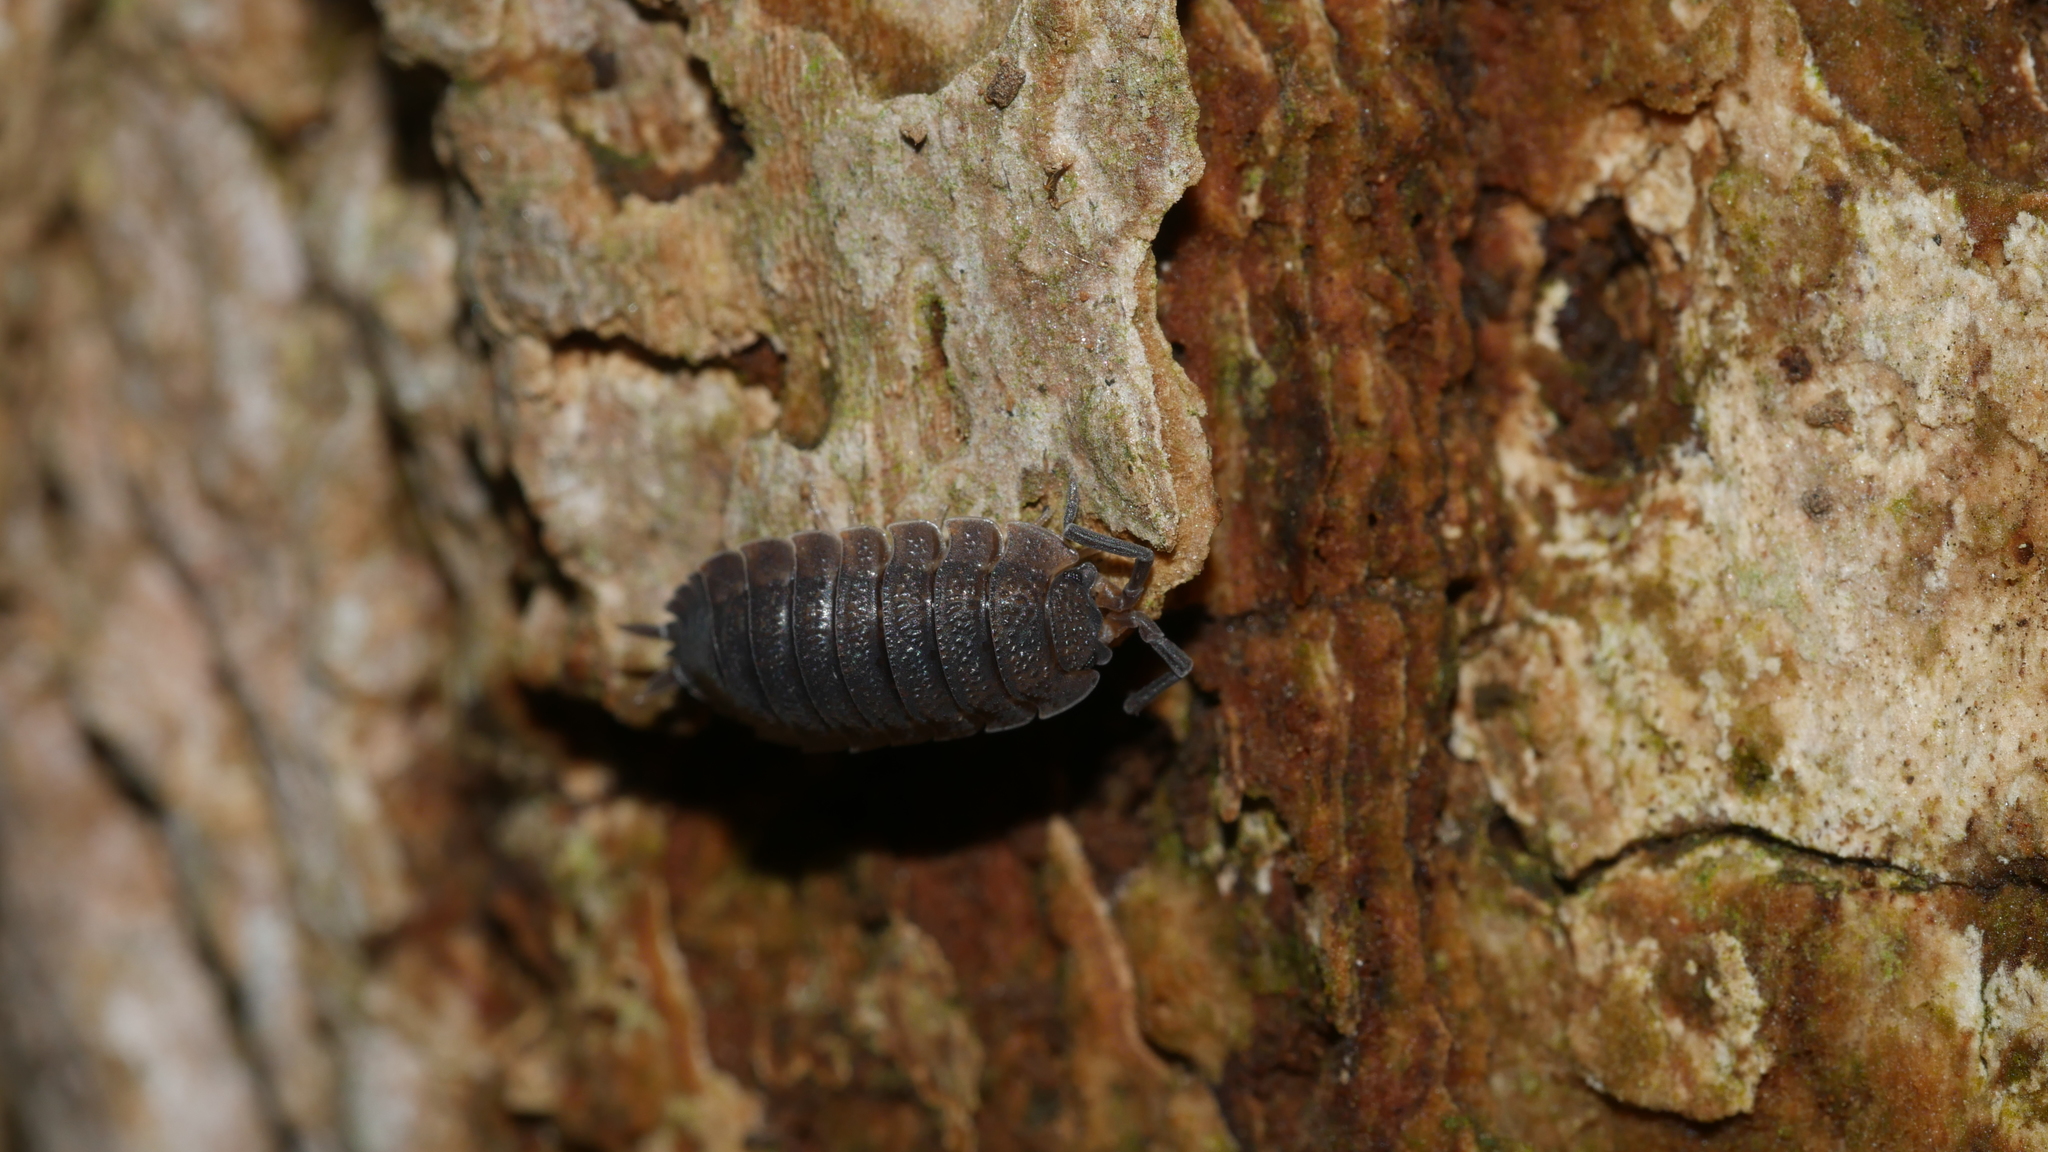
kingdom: Animalia
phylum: Arthropoda
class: Malacostraca
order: Isopoda
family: Porcellionidae
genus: Porcellio
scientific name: Porcellio scaber
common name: Common rough woodlouse
